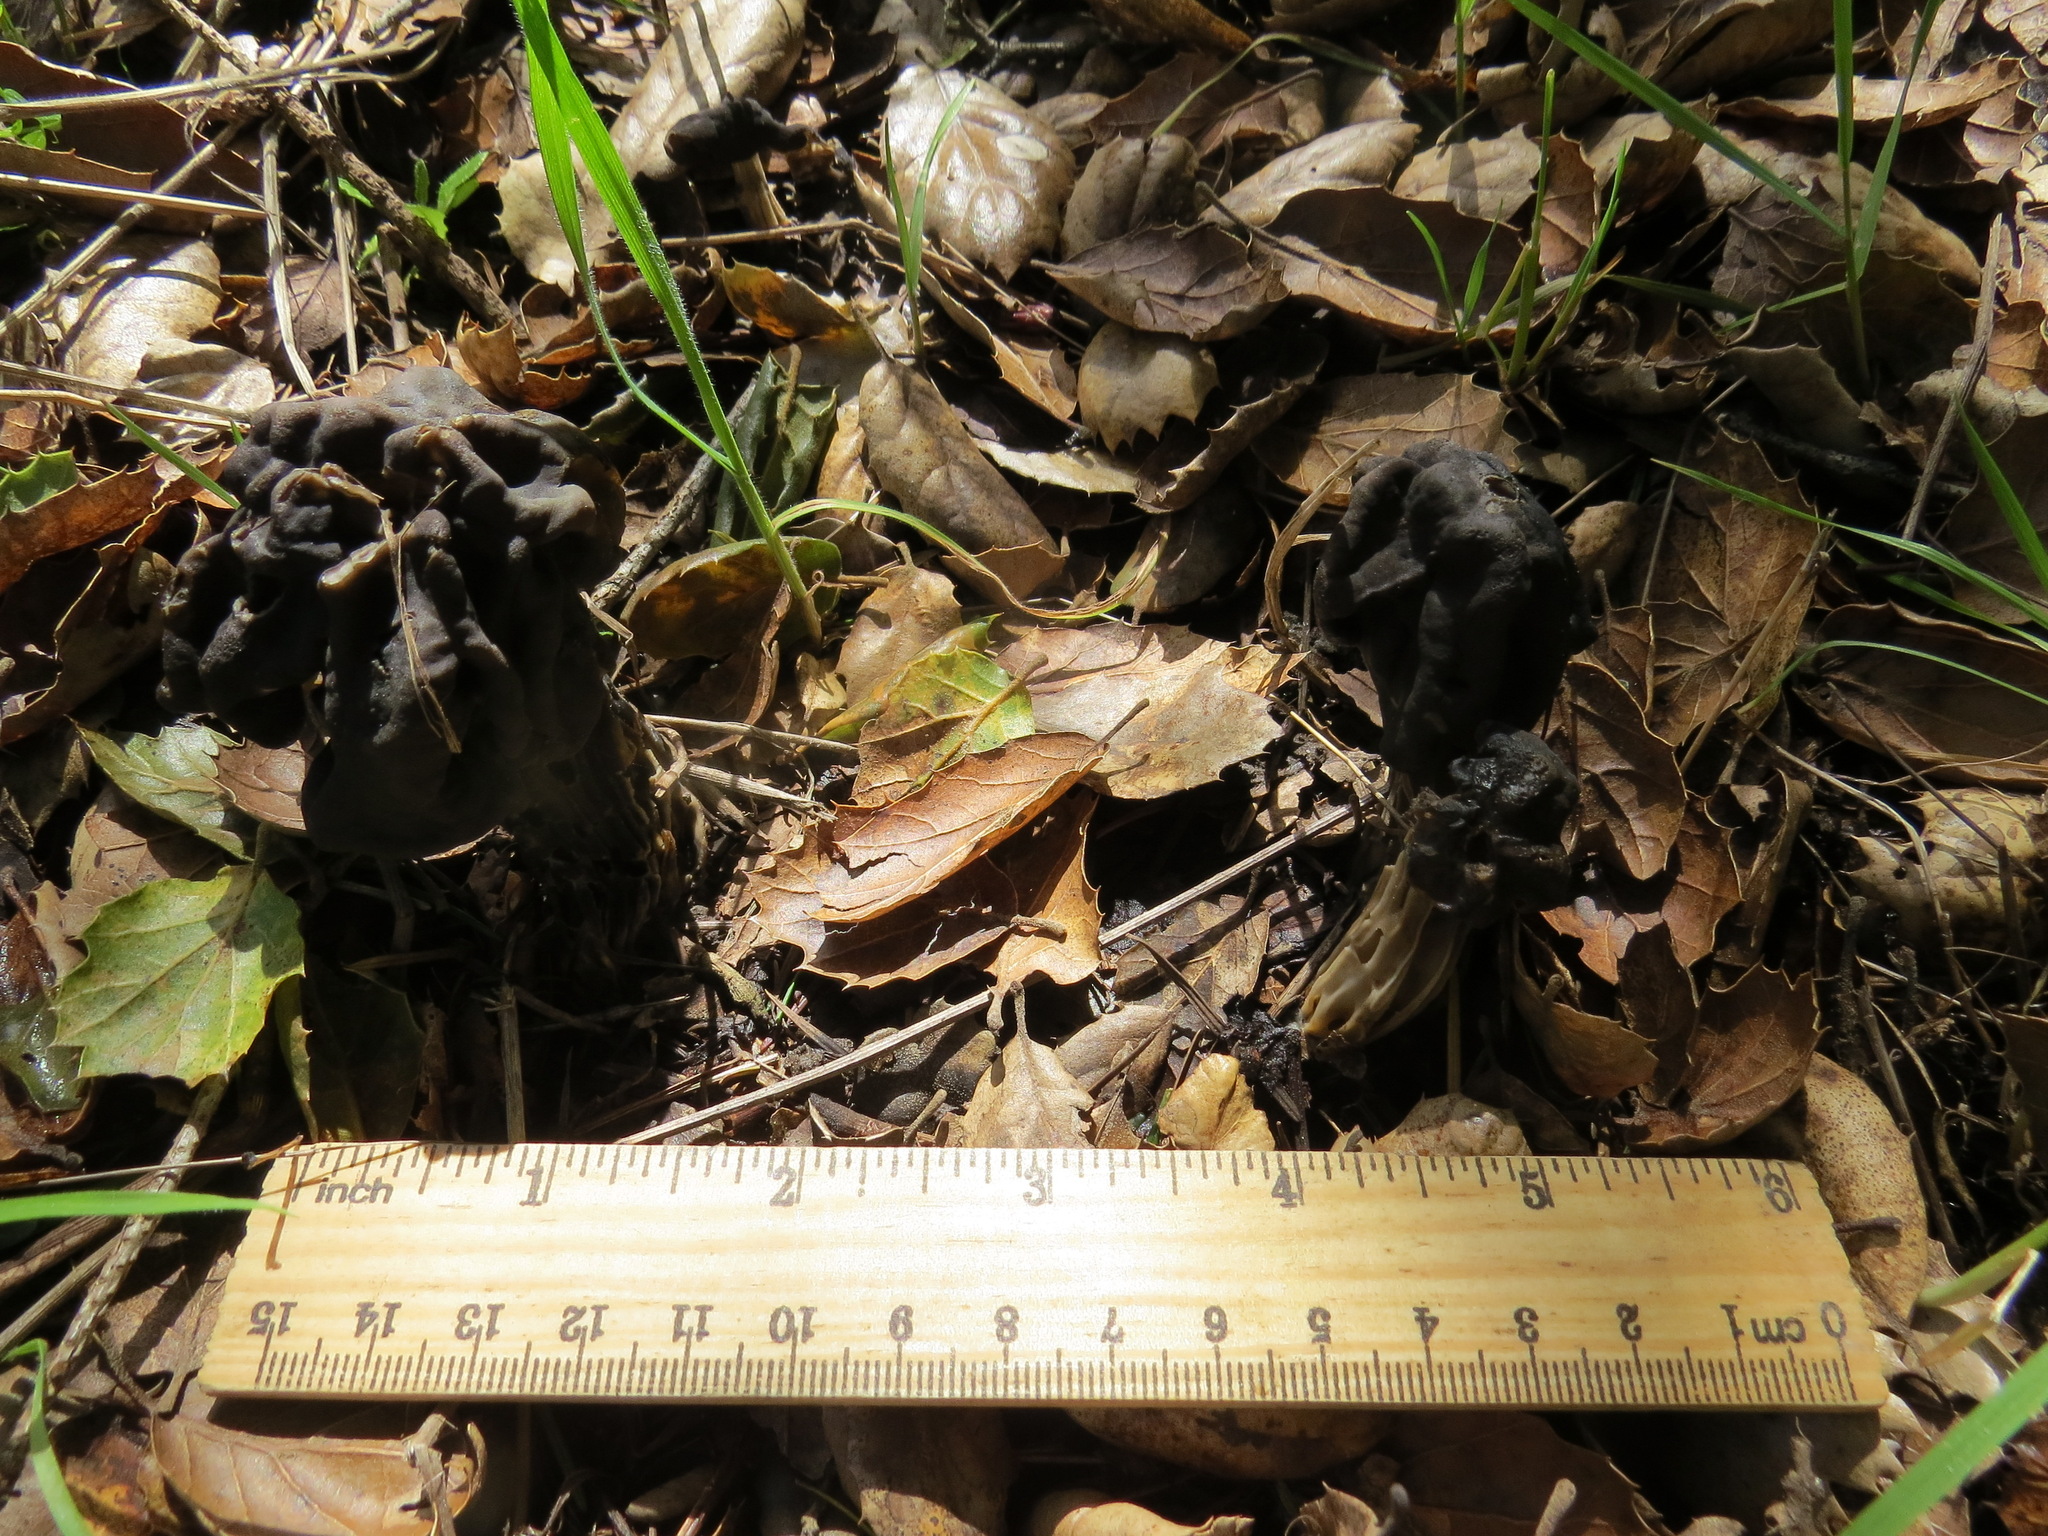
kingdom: Fungi
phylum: Ascomycota
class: Pezizomycetes
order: Pezizales
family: Helvellaceae
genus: Helvella
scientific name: Helvella dryophila
